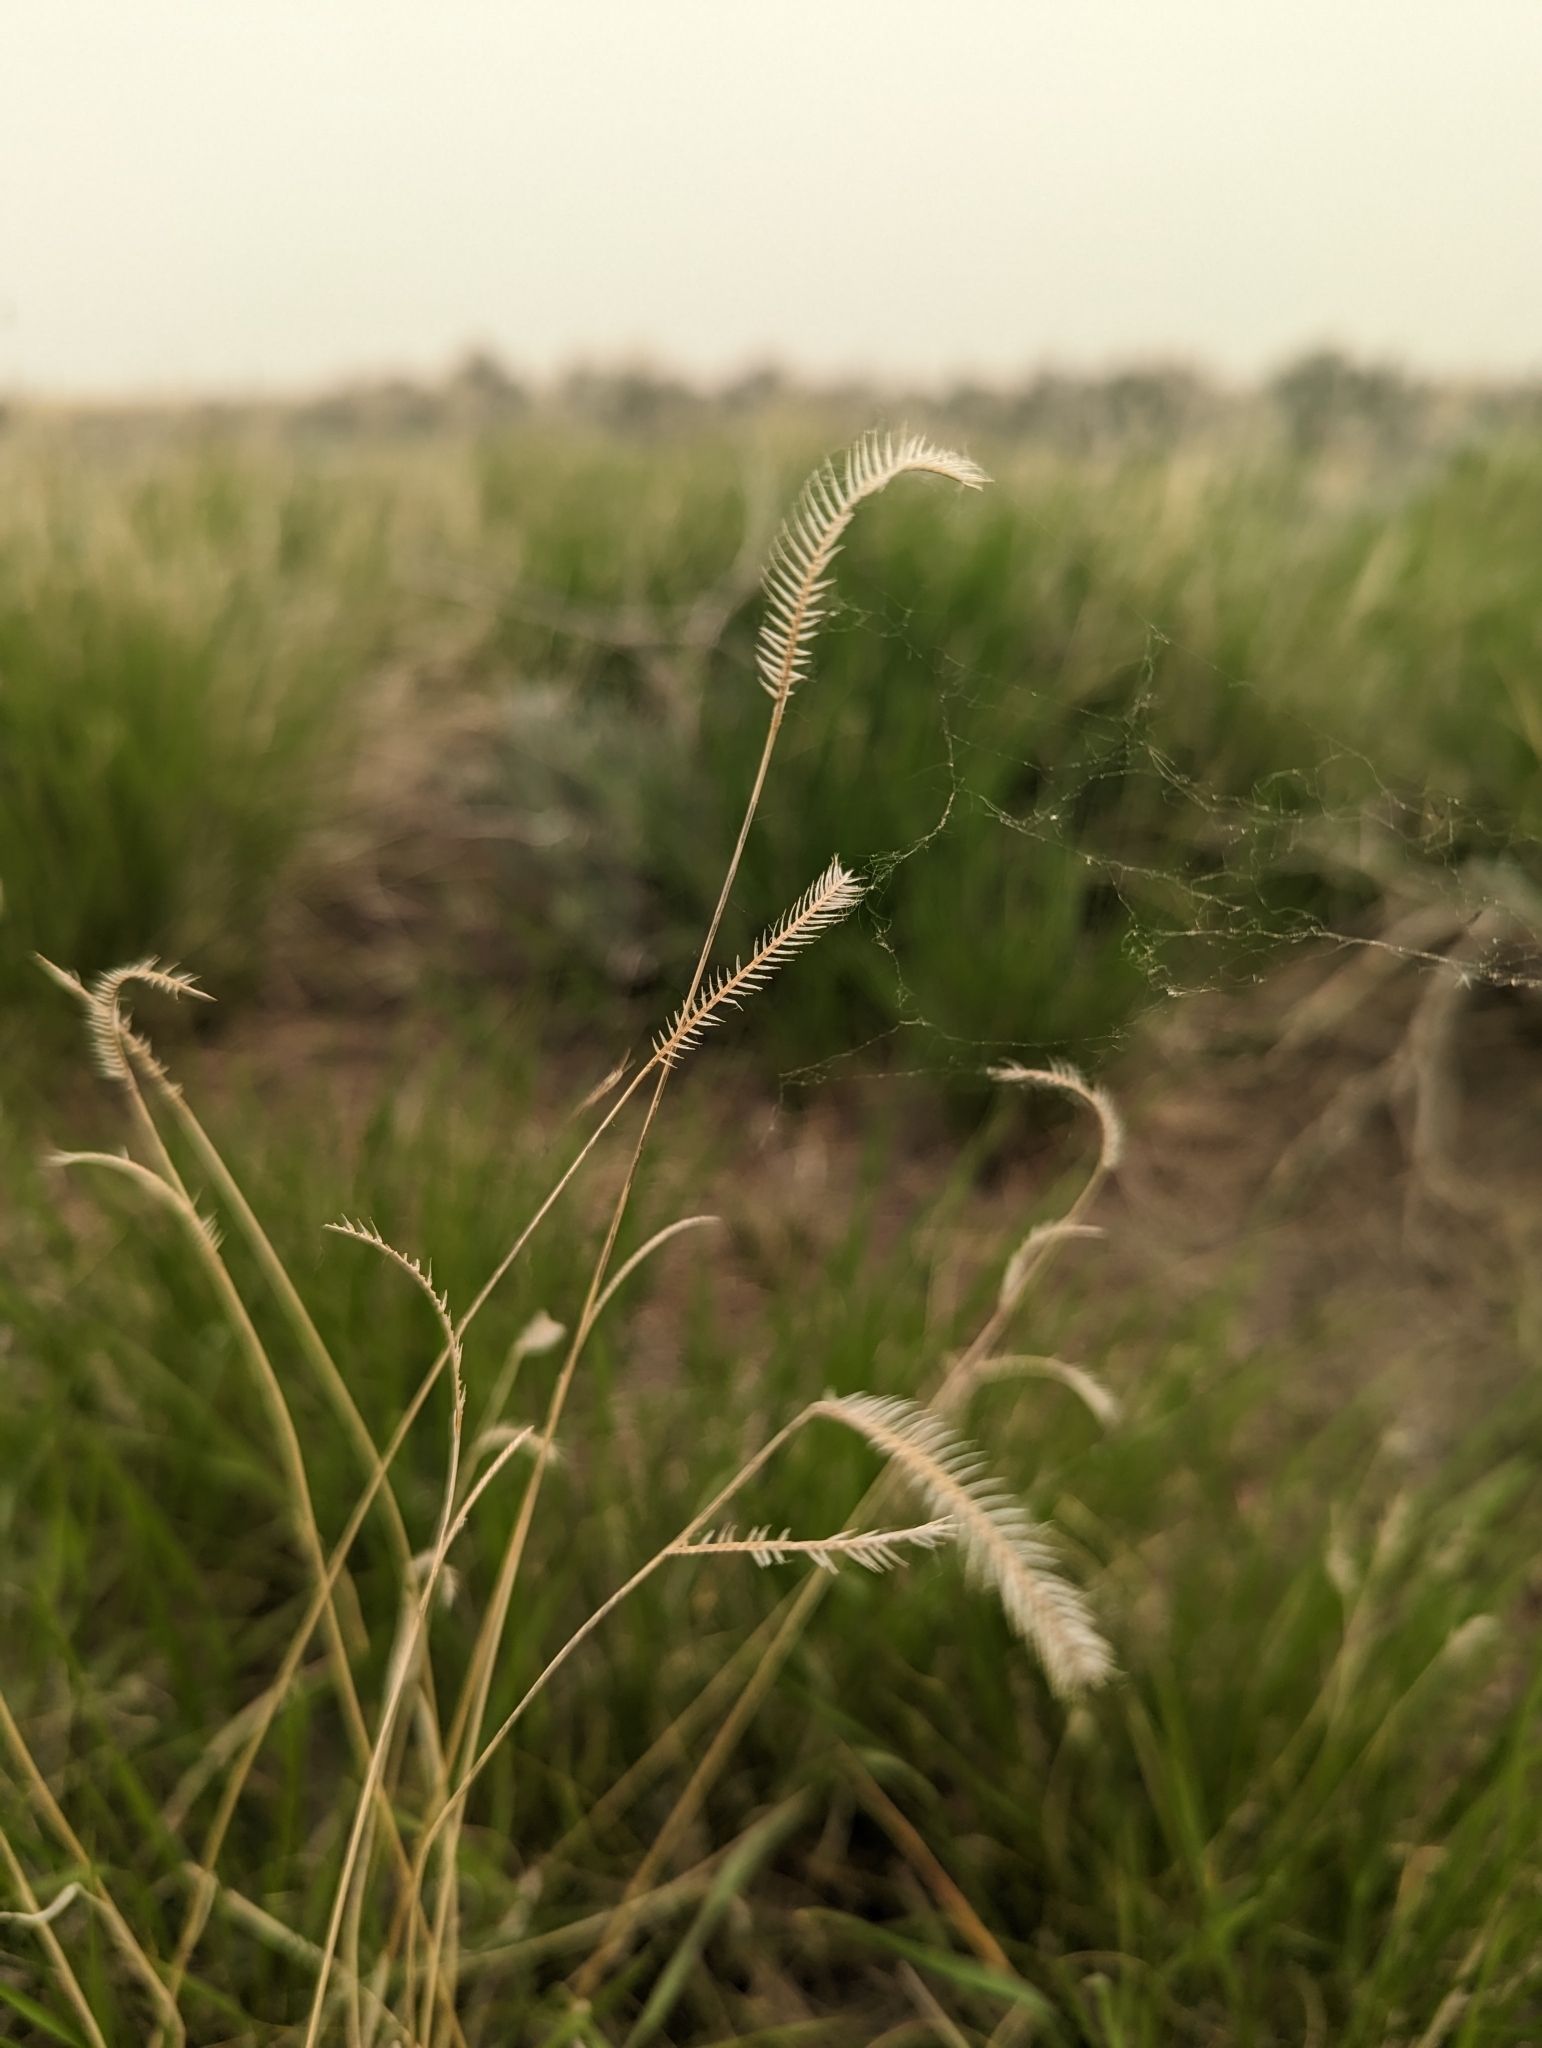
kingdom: Plantae
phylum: Tracheophyta
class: Liliopsida
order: Poales
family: Poaceae
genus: Bouteloua
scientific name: Bouteloua gracilis
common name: Blue grama
